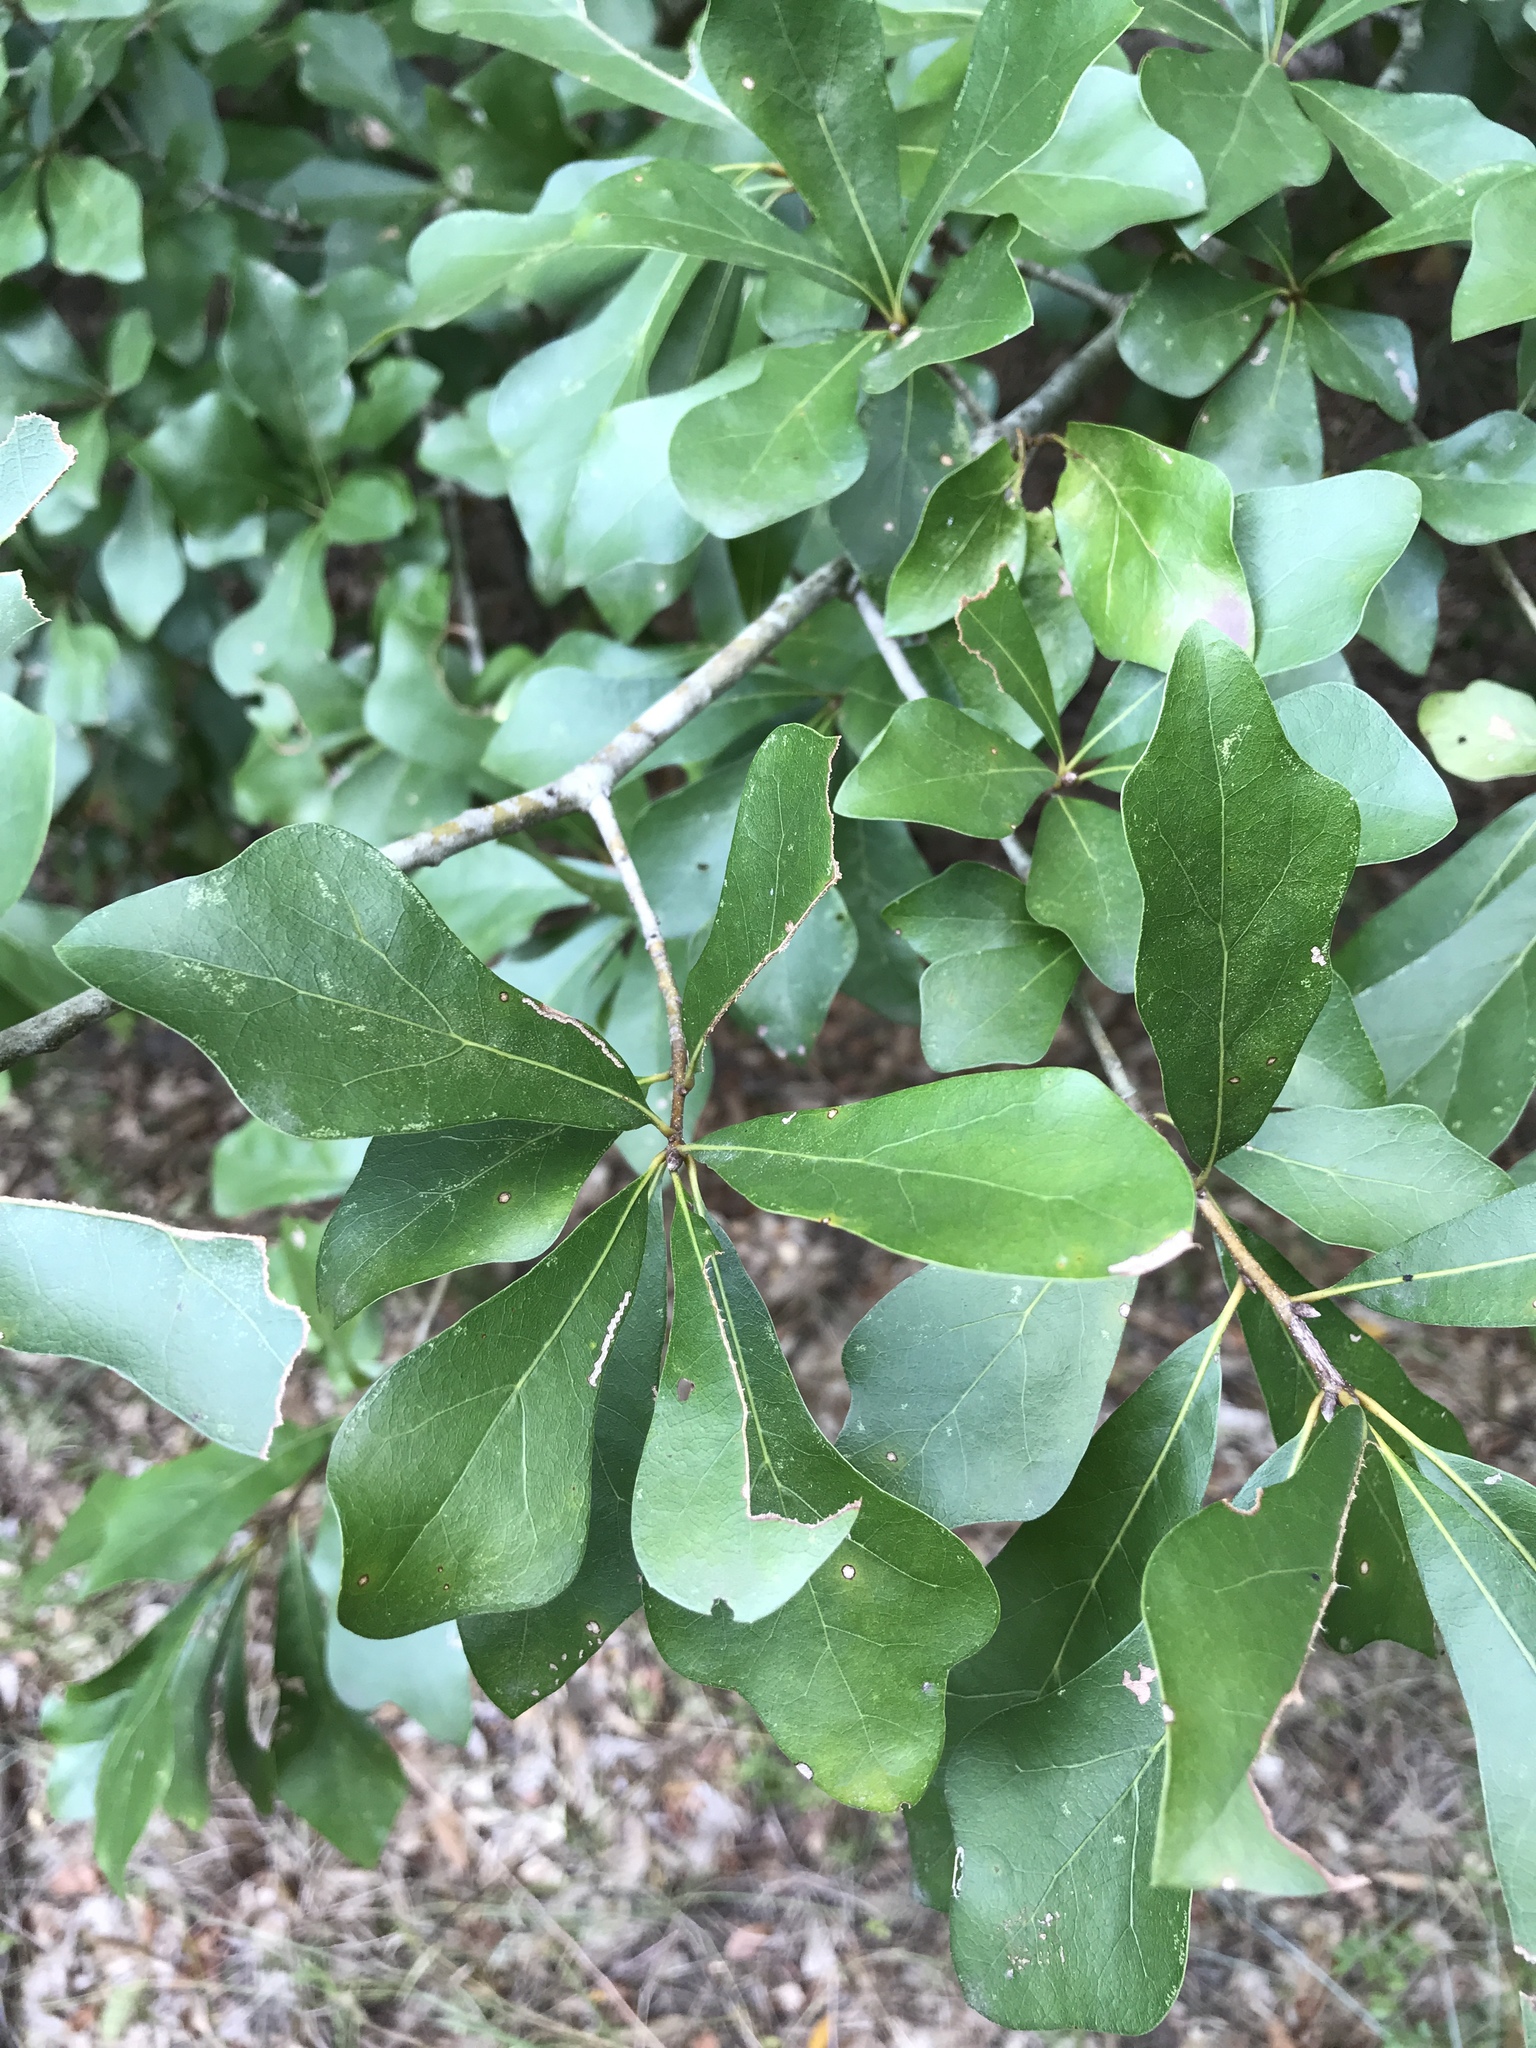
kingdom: Plantae
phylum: Tracheophyta
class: Magnoliopsida
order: Fagales
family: Fagaceae
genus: Quercus
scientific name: Quercus nigra
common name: Water oak
